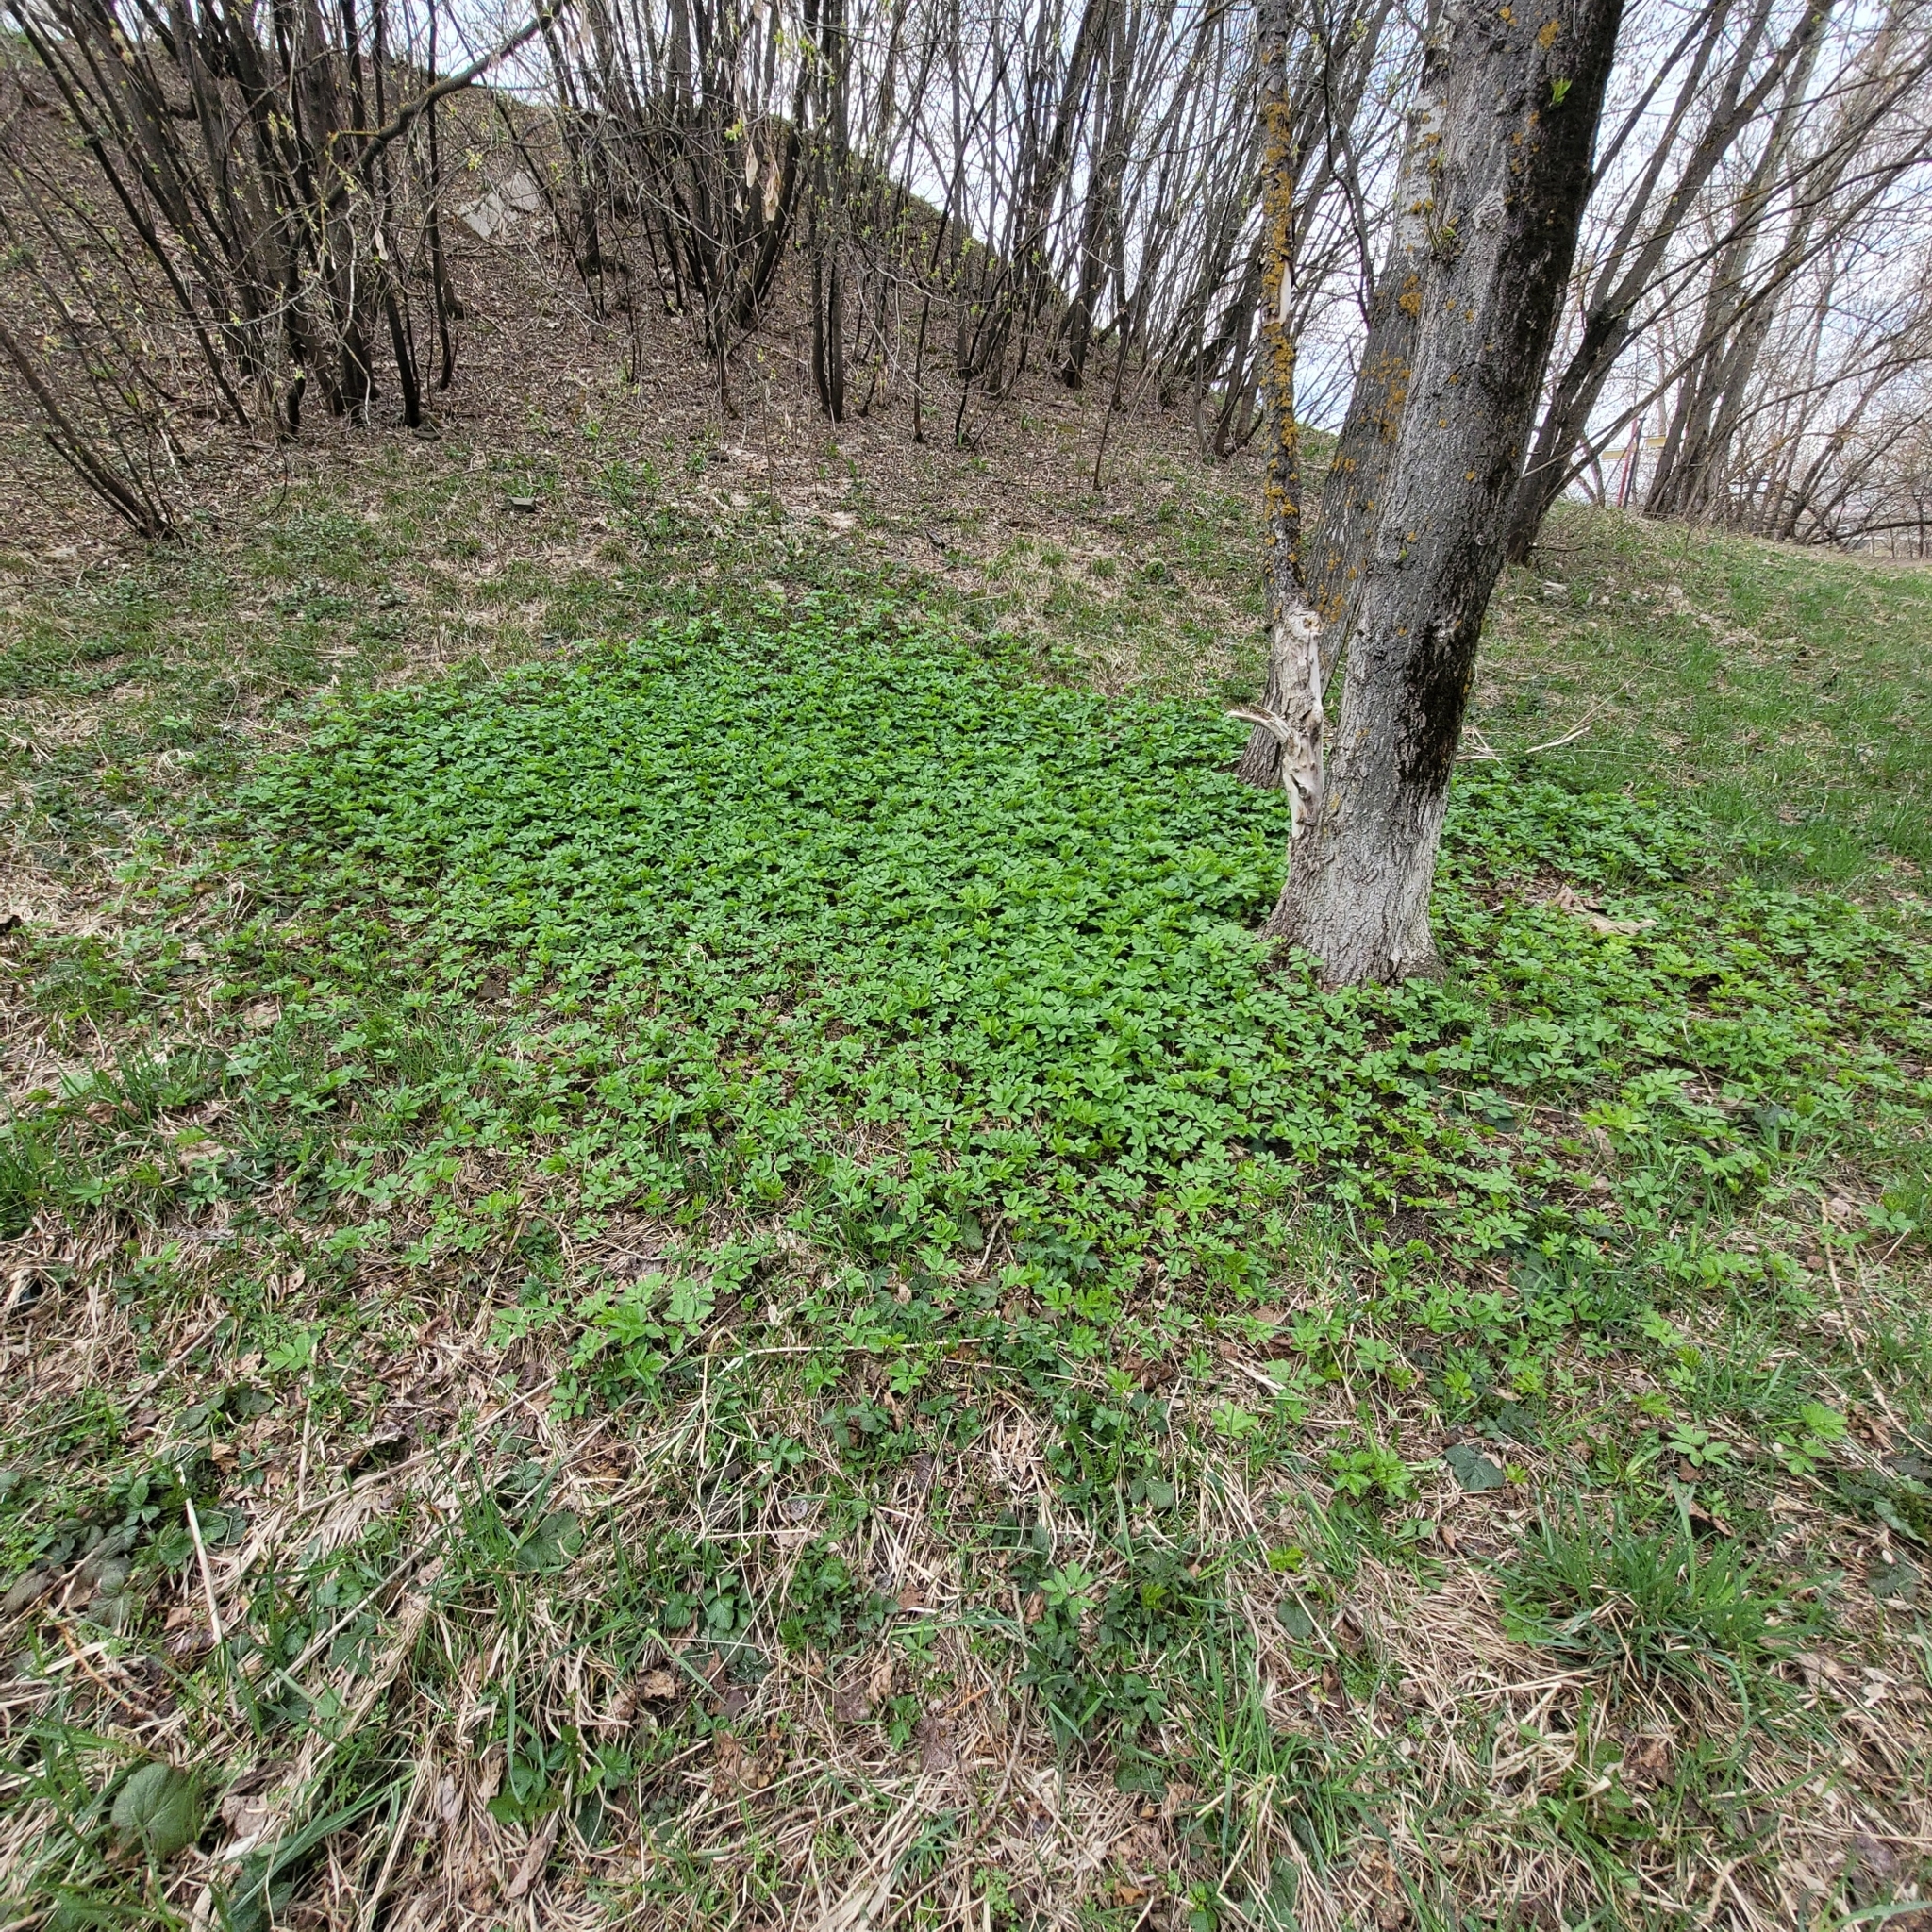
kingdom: Plantae
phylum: Tracheophyta
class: Magnoliopsida
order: Apiales
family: Apiaceae
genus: Aegopodium
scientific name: Aegopodium podagraria
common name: Ground-elder
